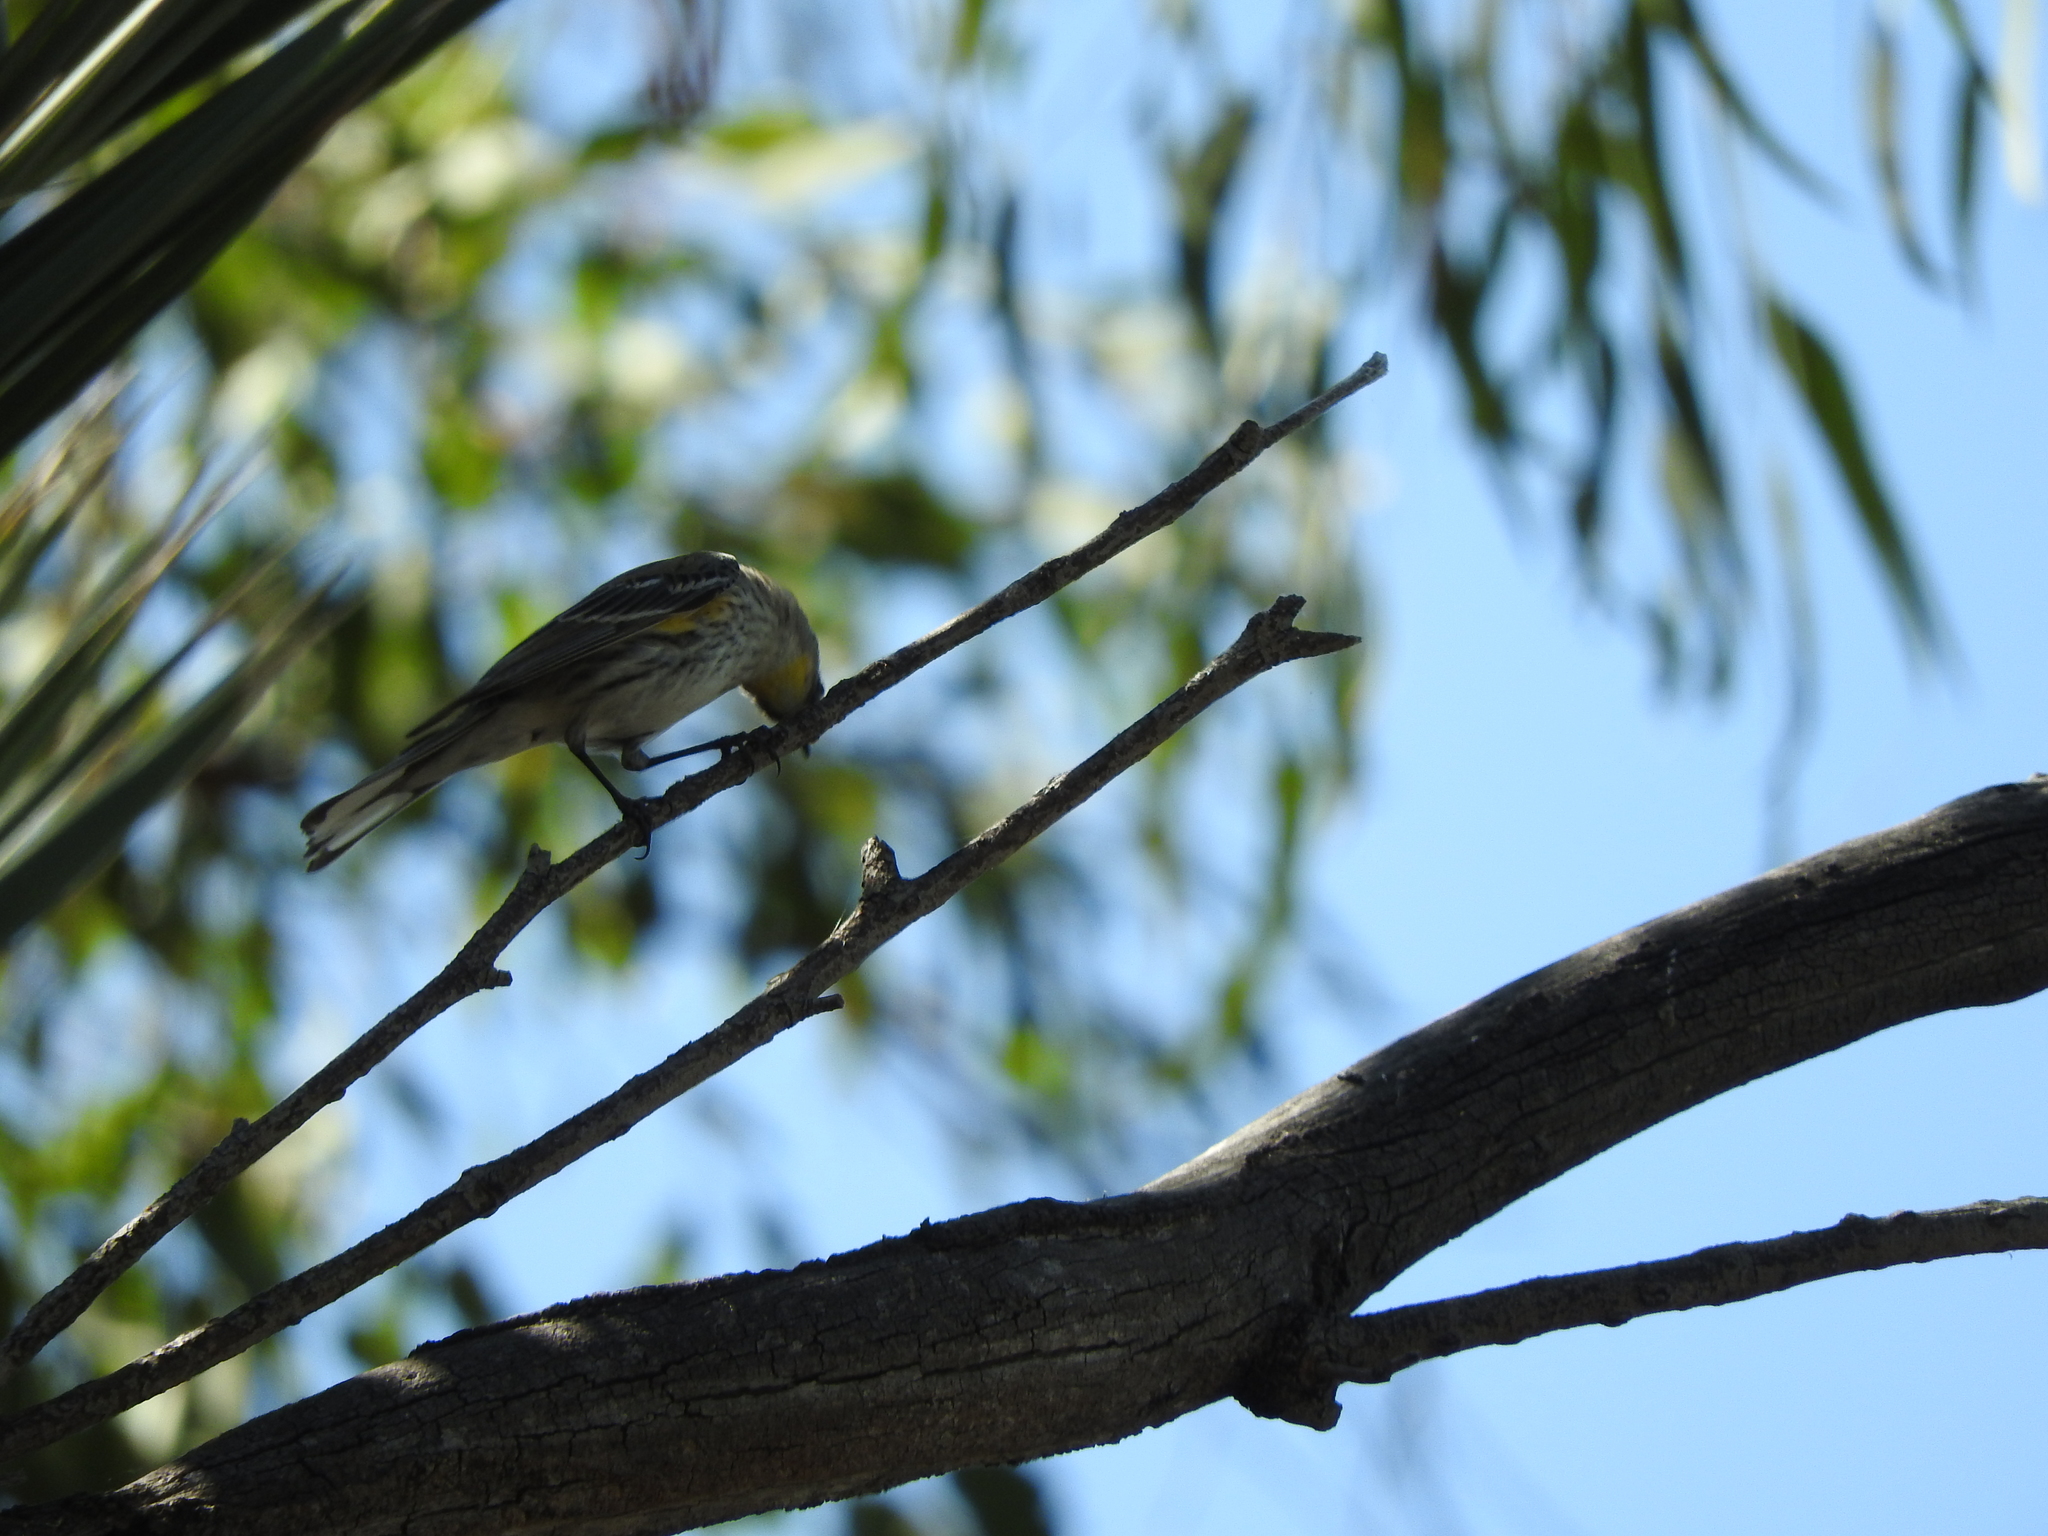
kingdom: Animalia
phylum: Chordata
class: Aves
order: Passeriformes
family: Parulidae
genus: Setophaga
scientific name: Setophaga coronata
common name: Myrtle warbler
